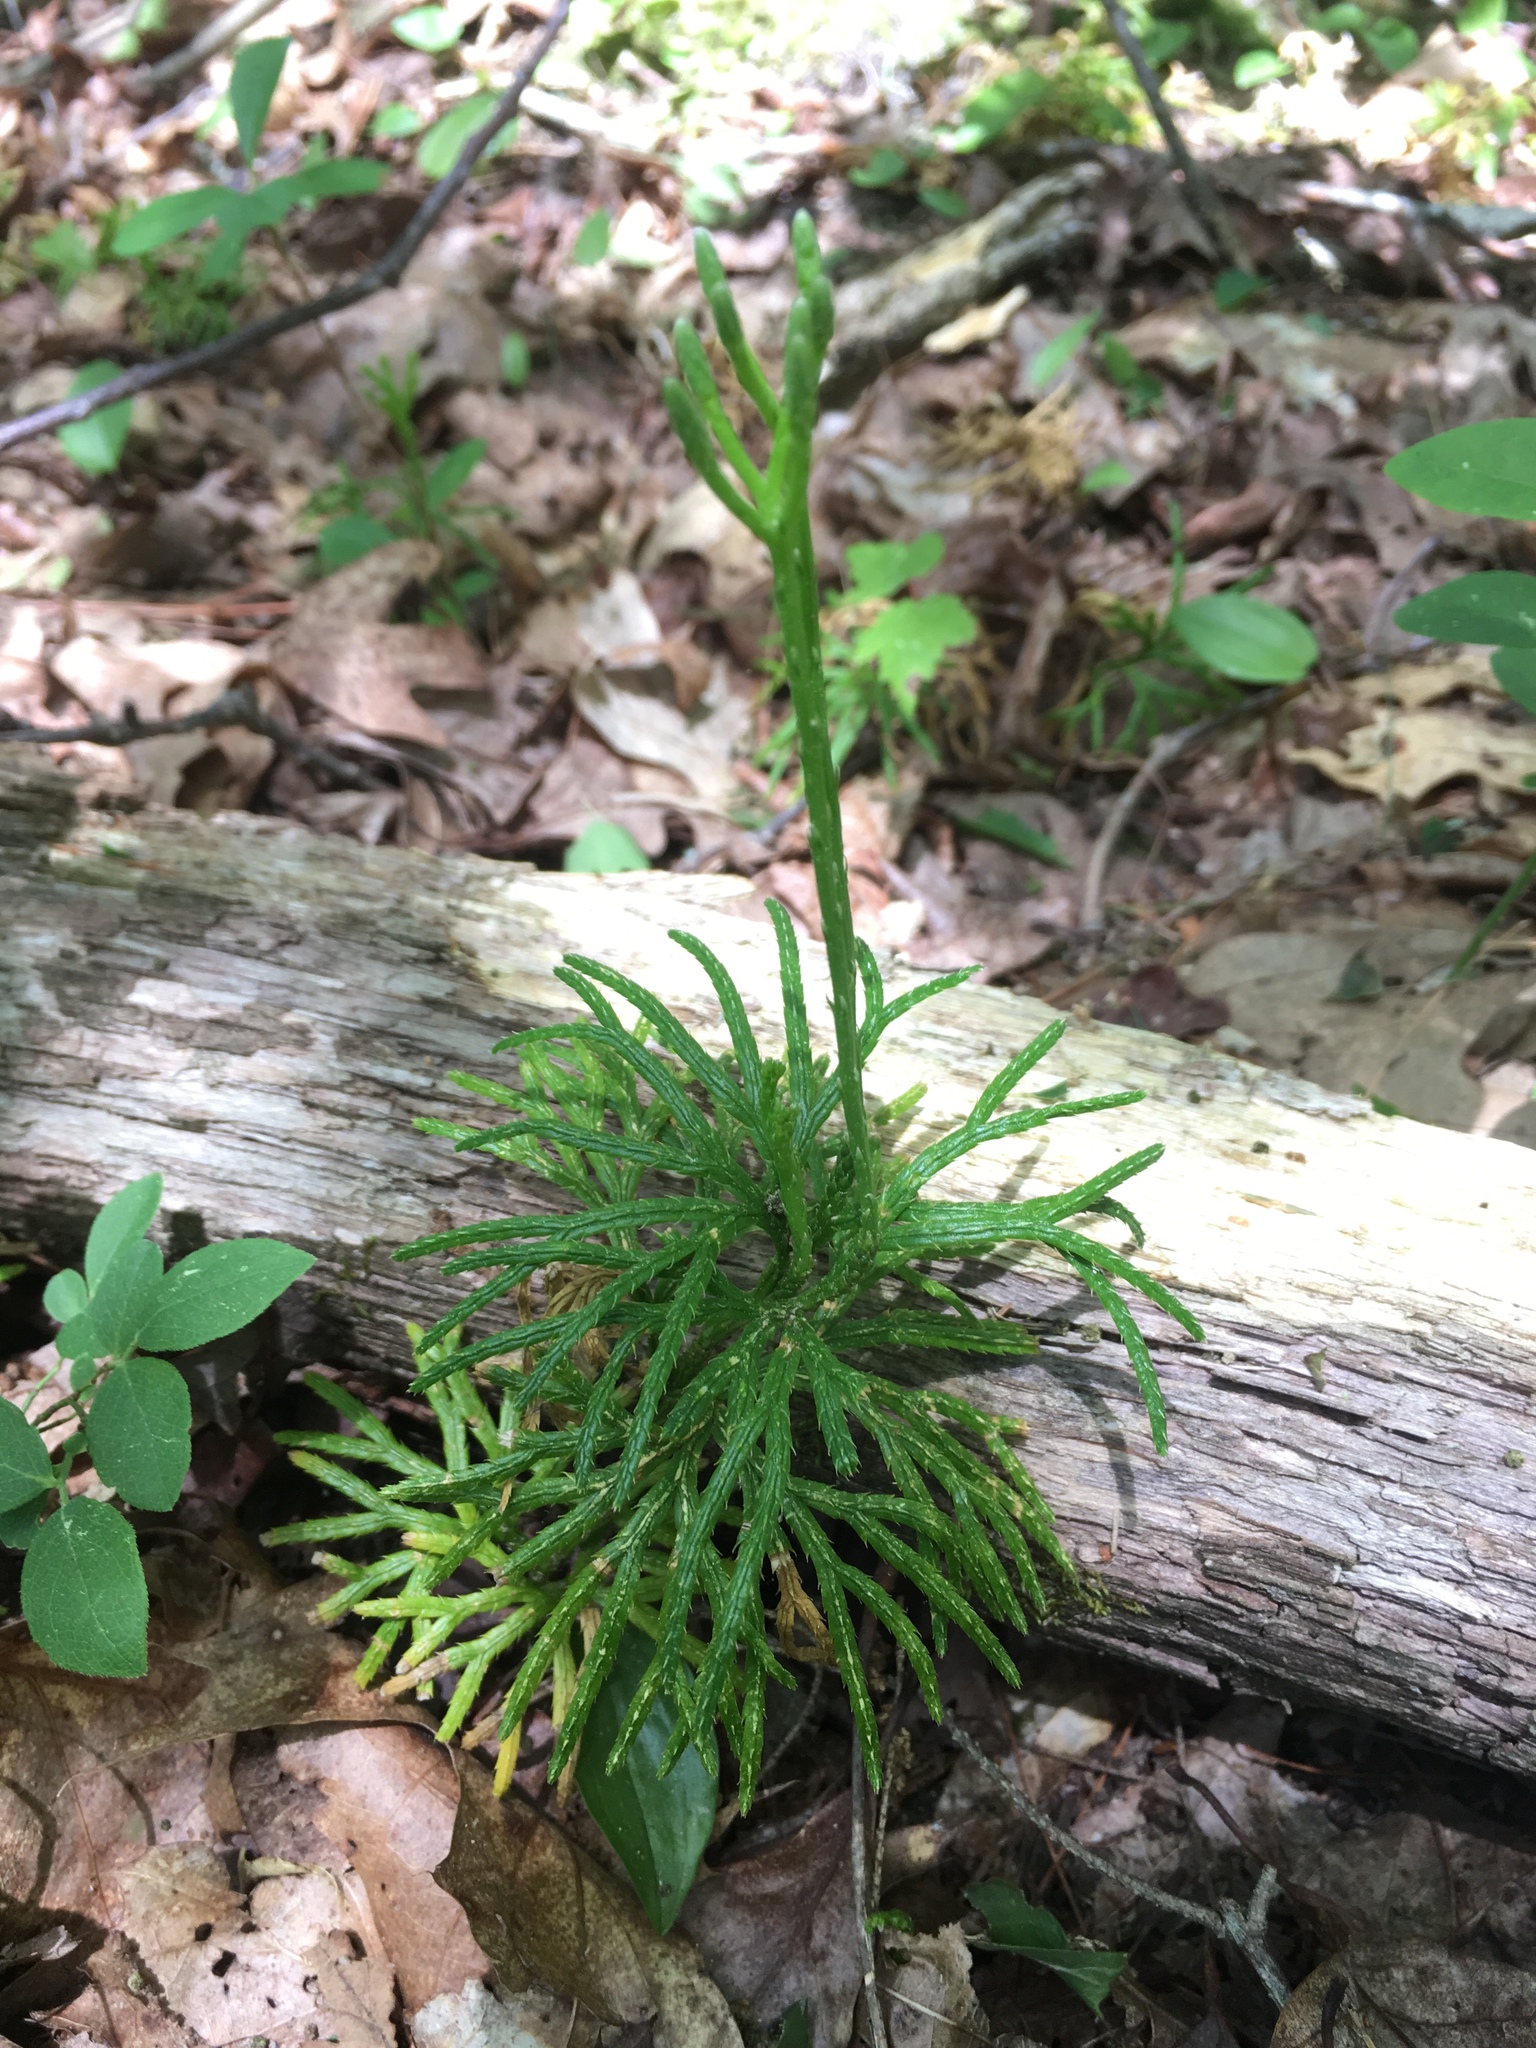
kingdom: Plantae
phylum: Tracheophyta
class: Lycopodiopsida
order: Lycopodiales
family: Lycopodiaceae
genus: Diphasiastrum
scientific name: Diphasiastrum digitatum
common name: Southern running-pine
